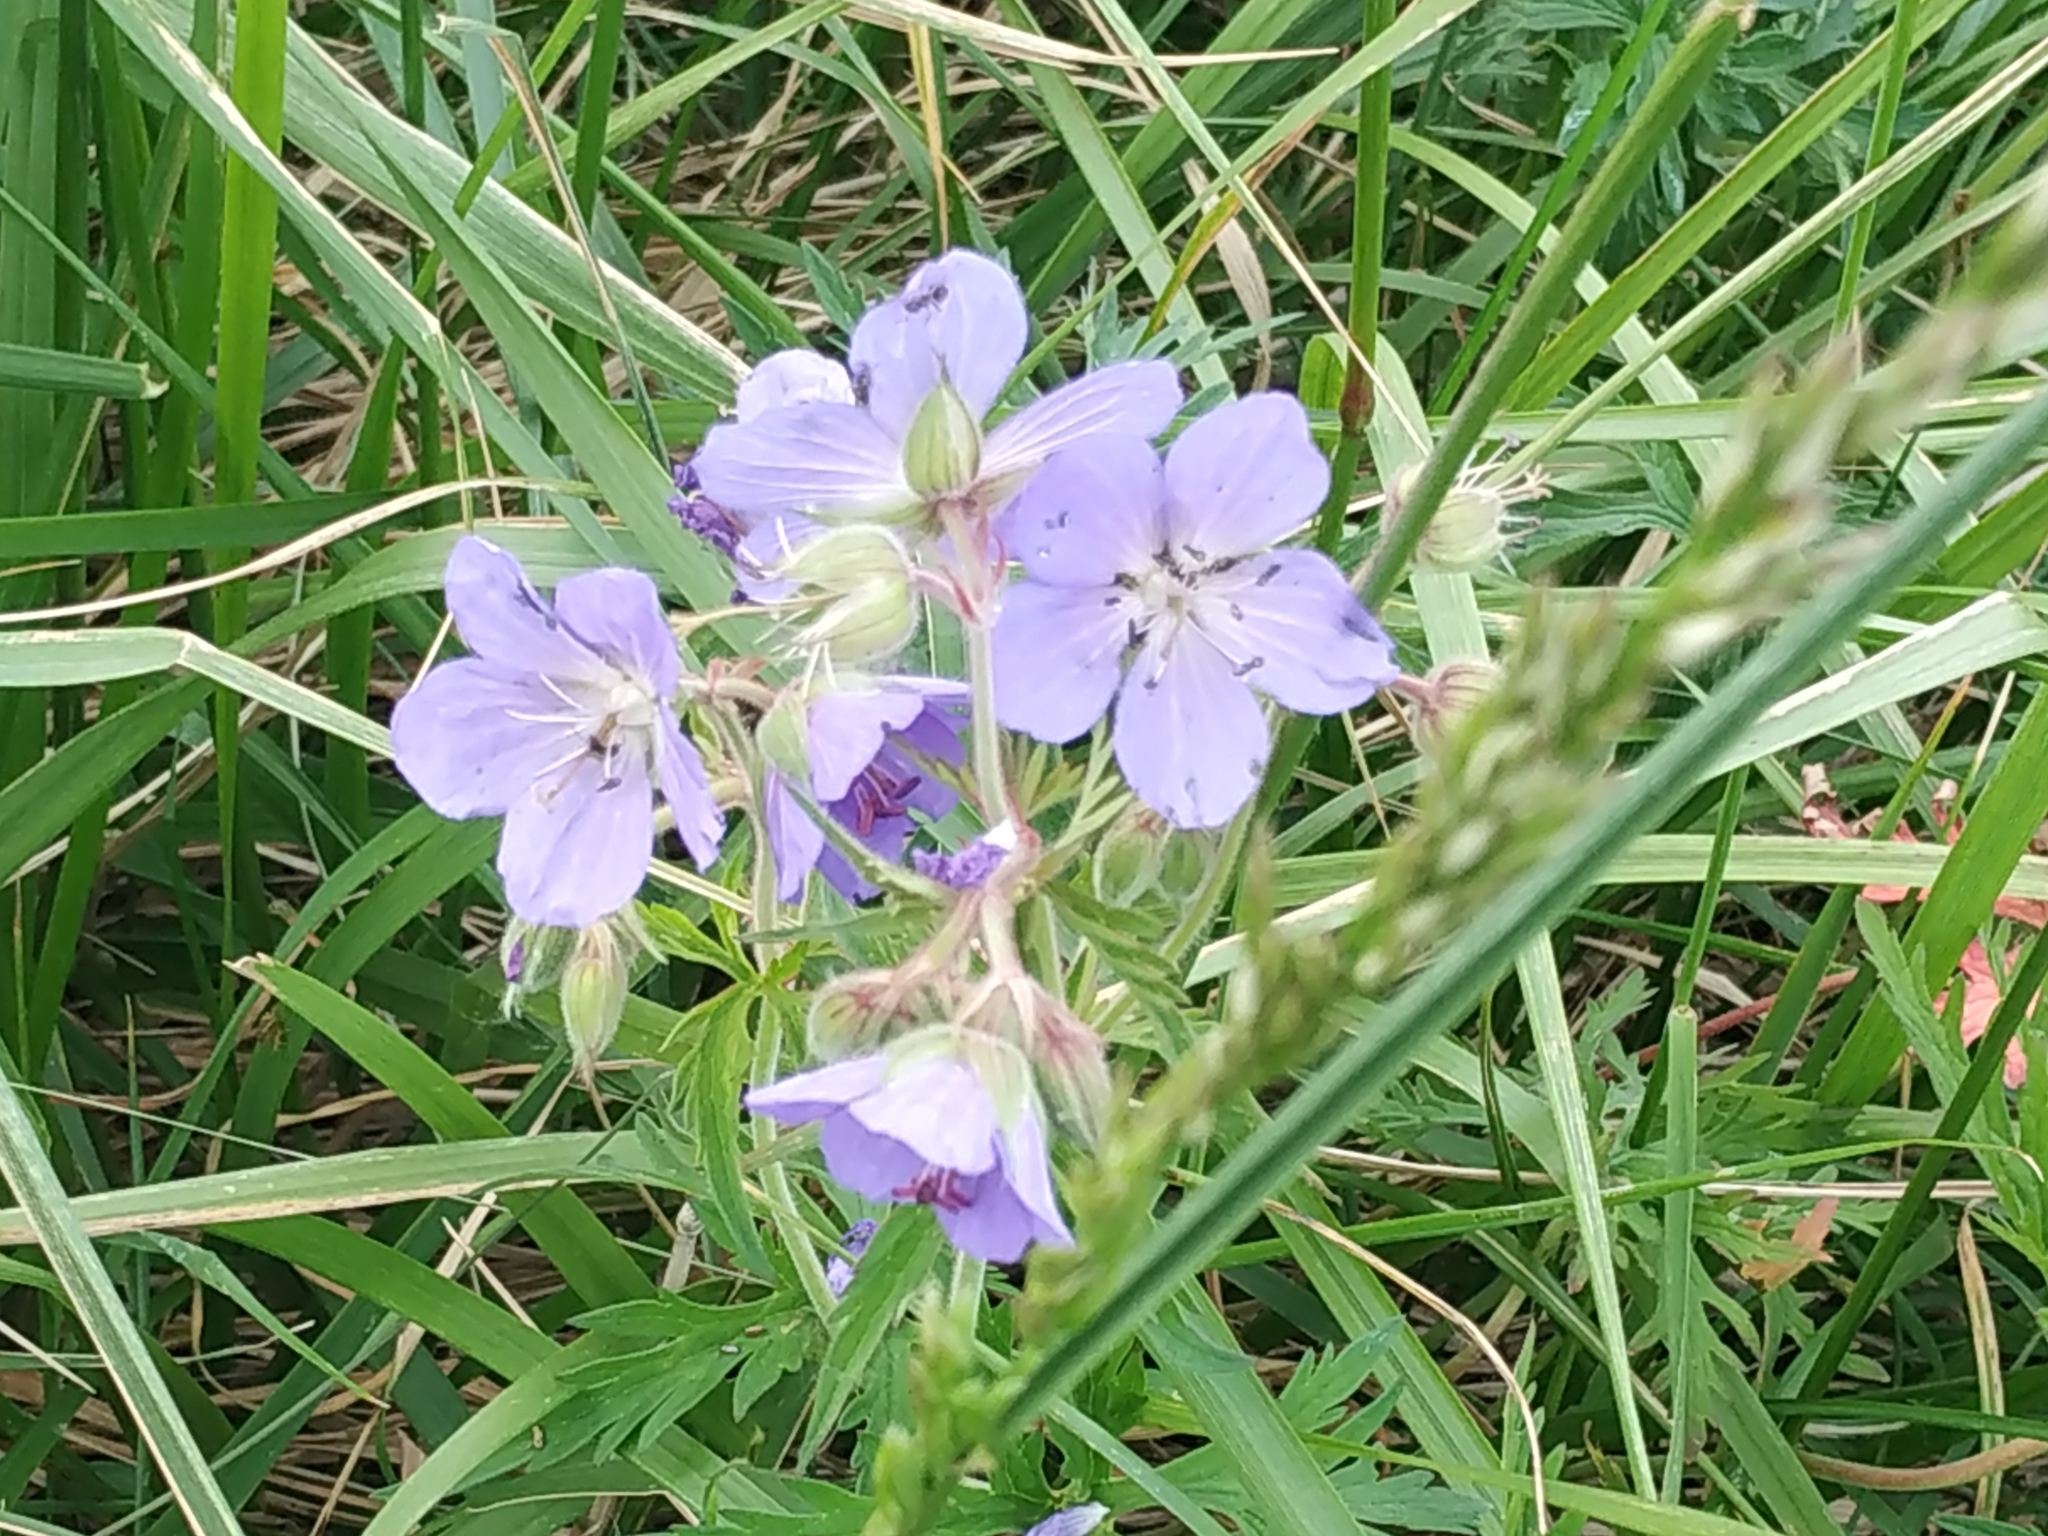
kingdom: Plantae
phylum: Tracheophyta
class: Magnoliopsida
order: Geraniales
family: Geraniaceae
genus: Geranium
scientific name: Geranium pratense
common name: Meadow crane's-bill
